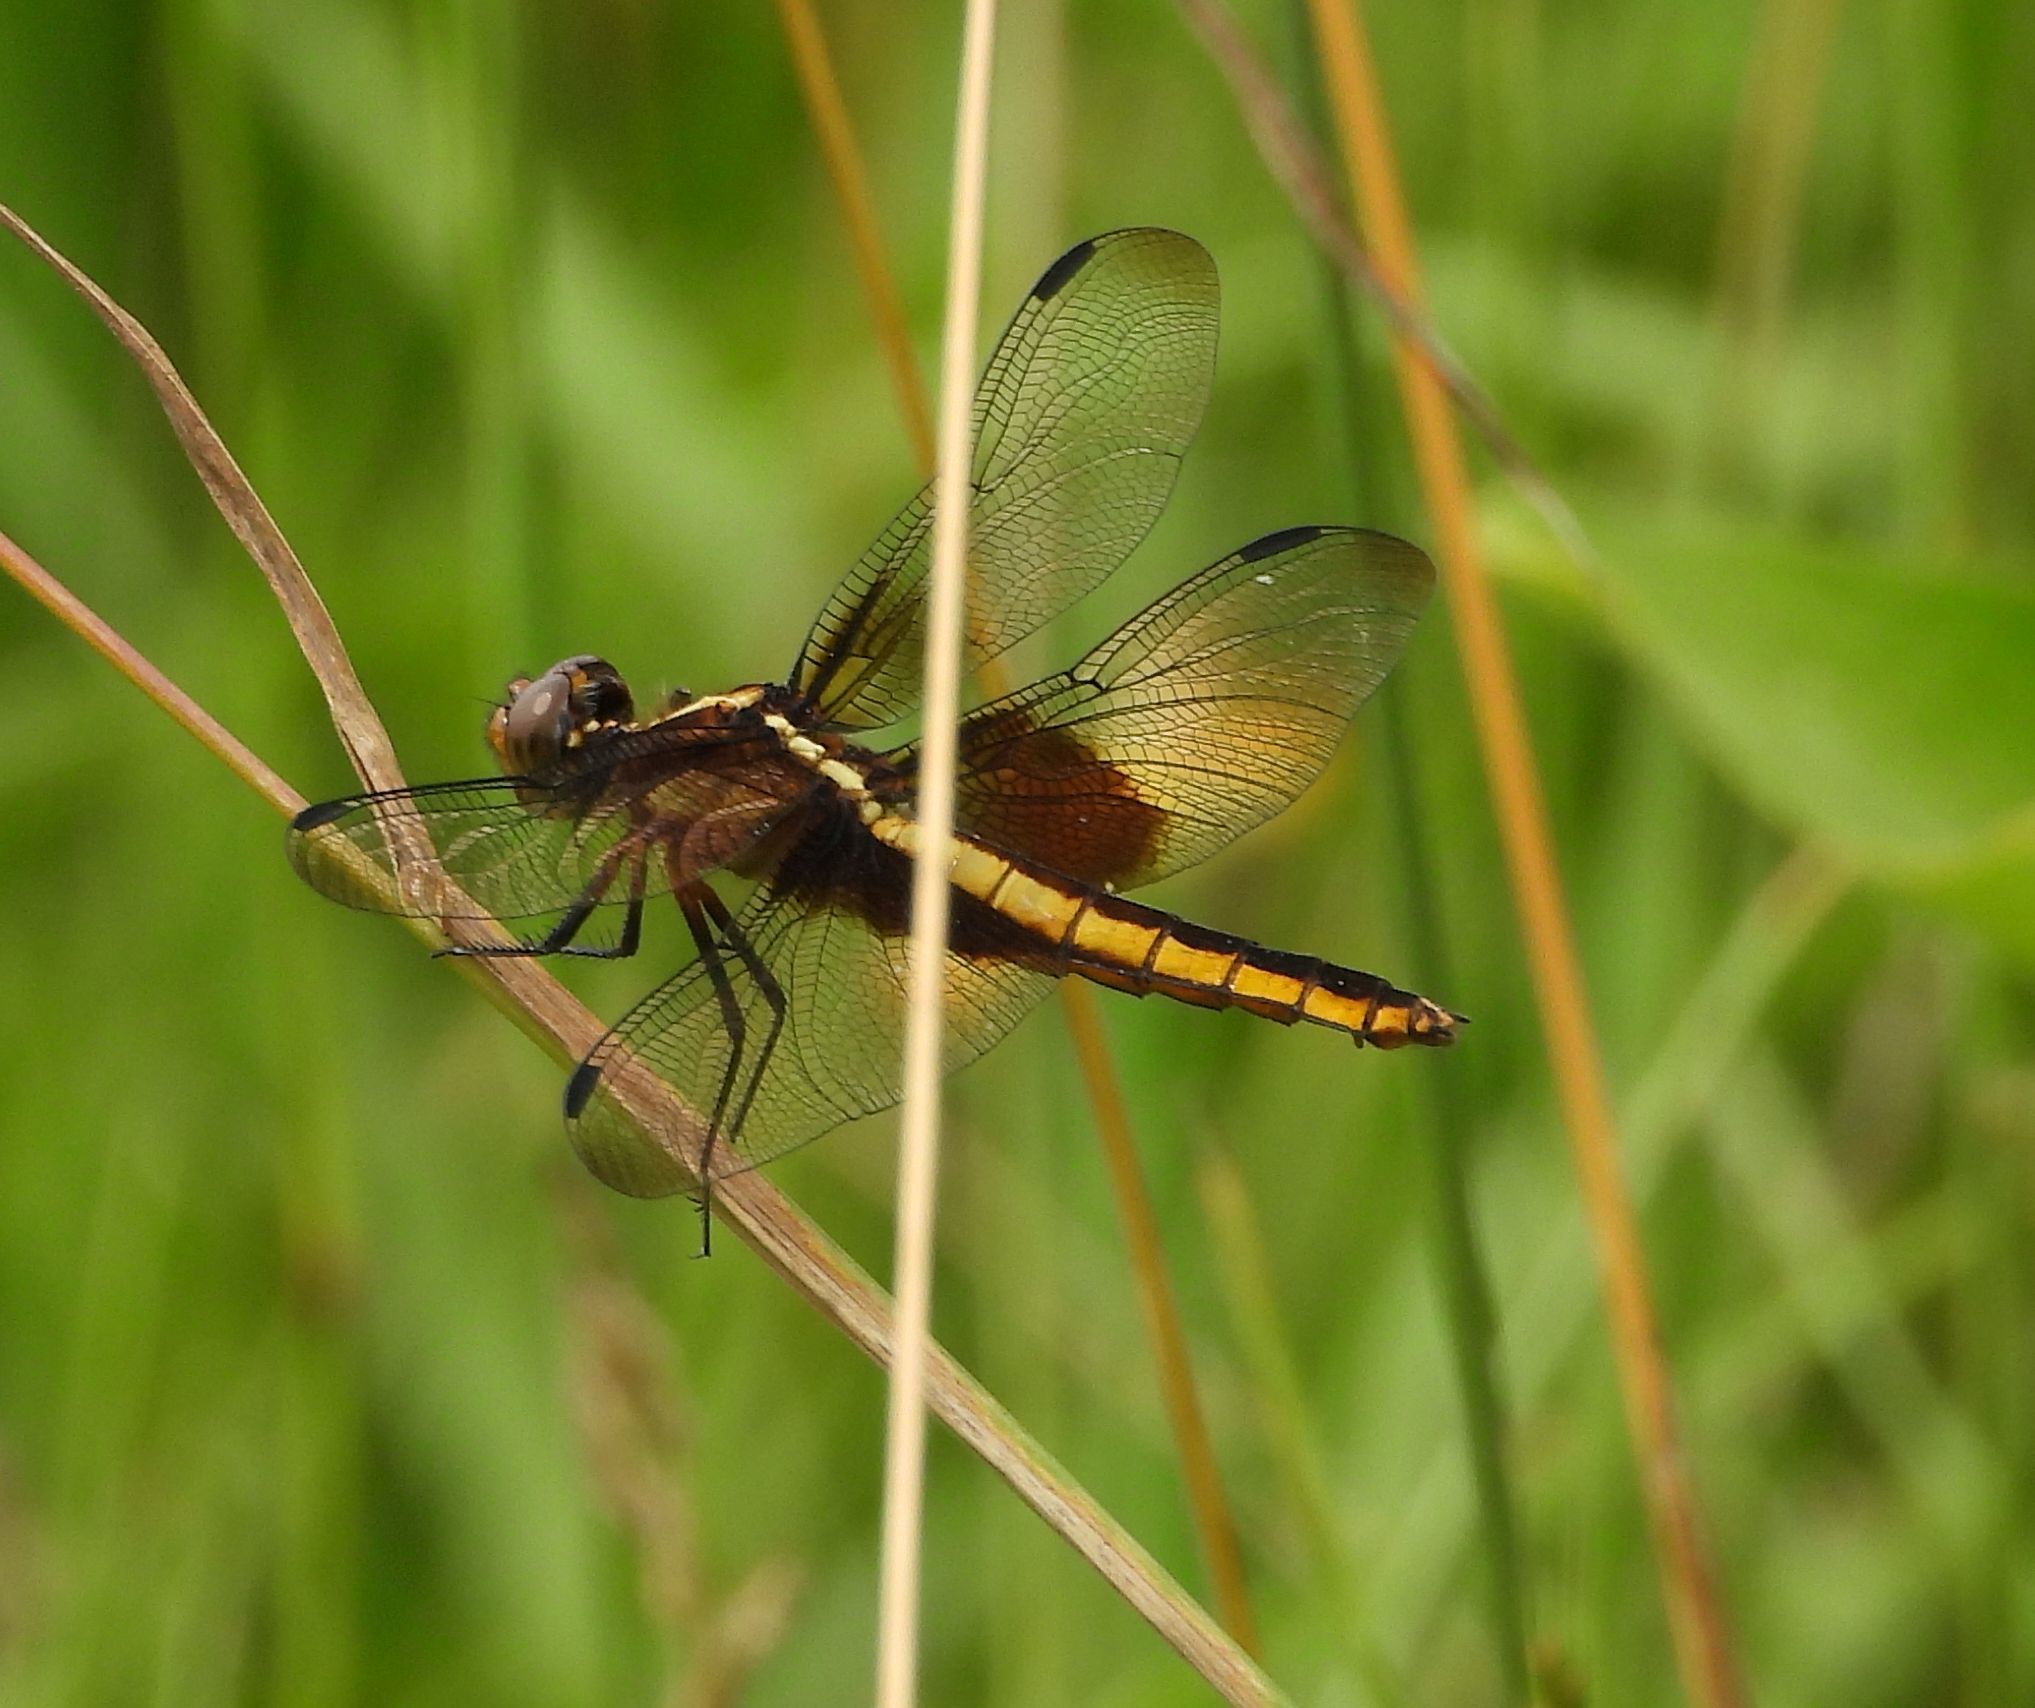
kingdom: Animalia
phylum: Arthropoda
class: Insecta
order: Odonata
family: Libellulidae
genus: Libellula
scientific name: Libellula luctuosa
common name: Widow skimmer
